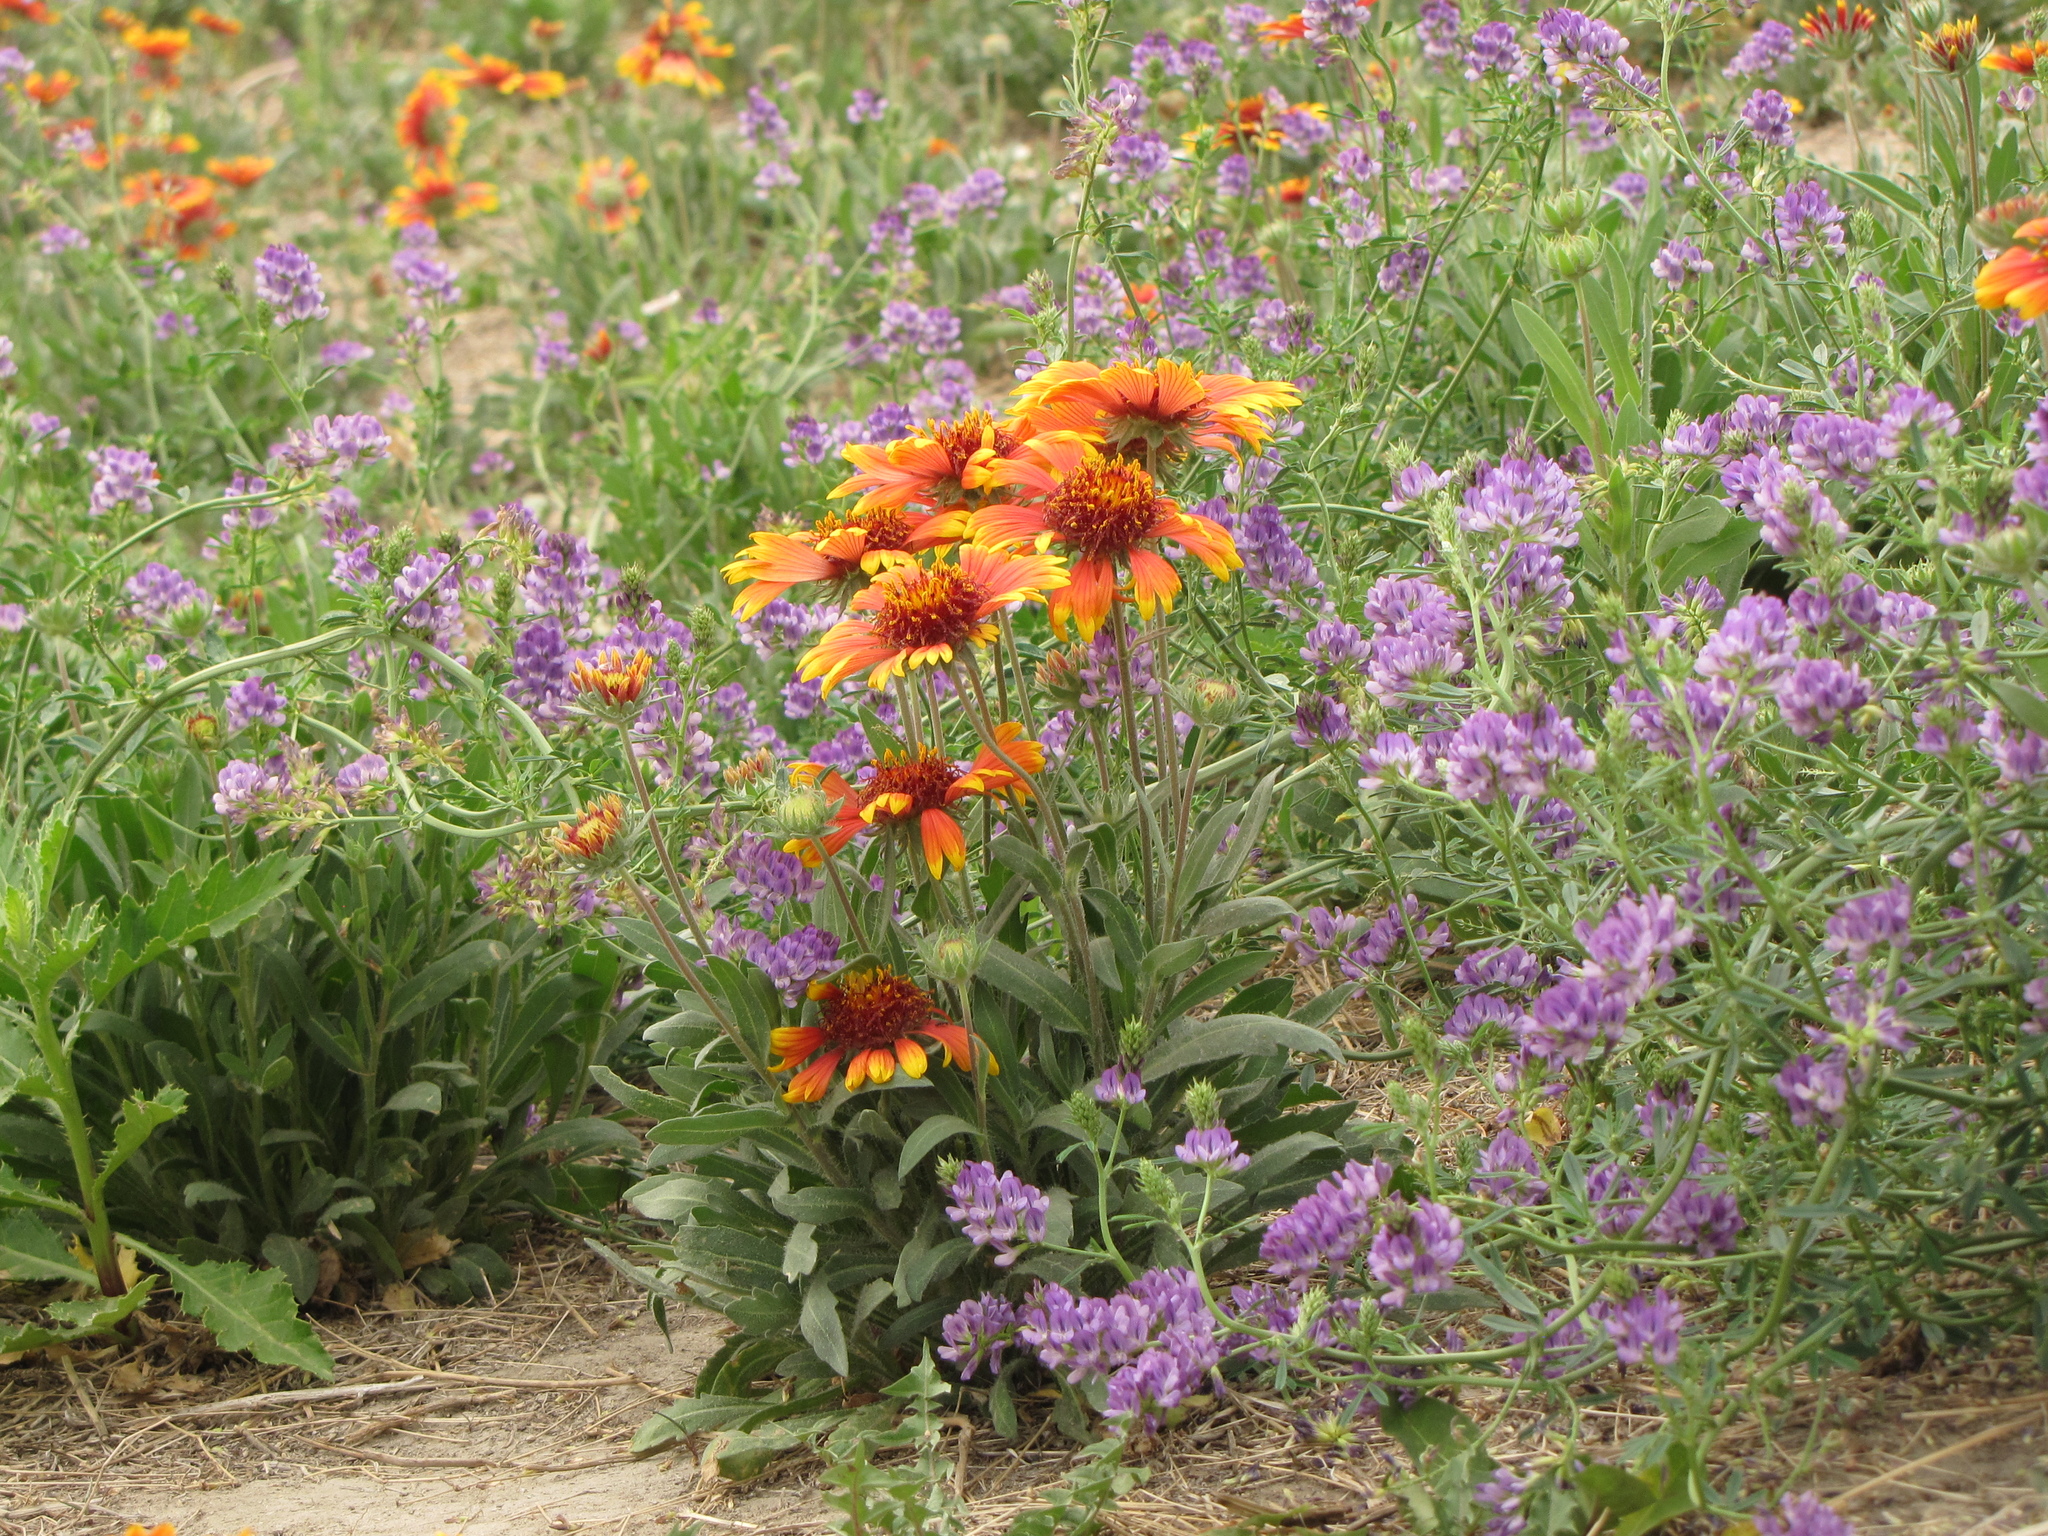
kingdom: Plantae
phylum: Tracheophyta
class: Magnoliopsida
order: Asterales
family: Asteraceae
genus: Gaillardia
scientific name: Gaillardia pulchella
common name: Firewheel
